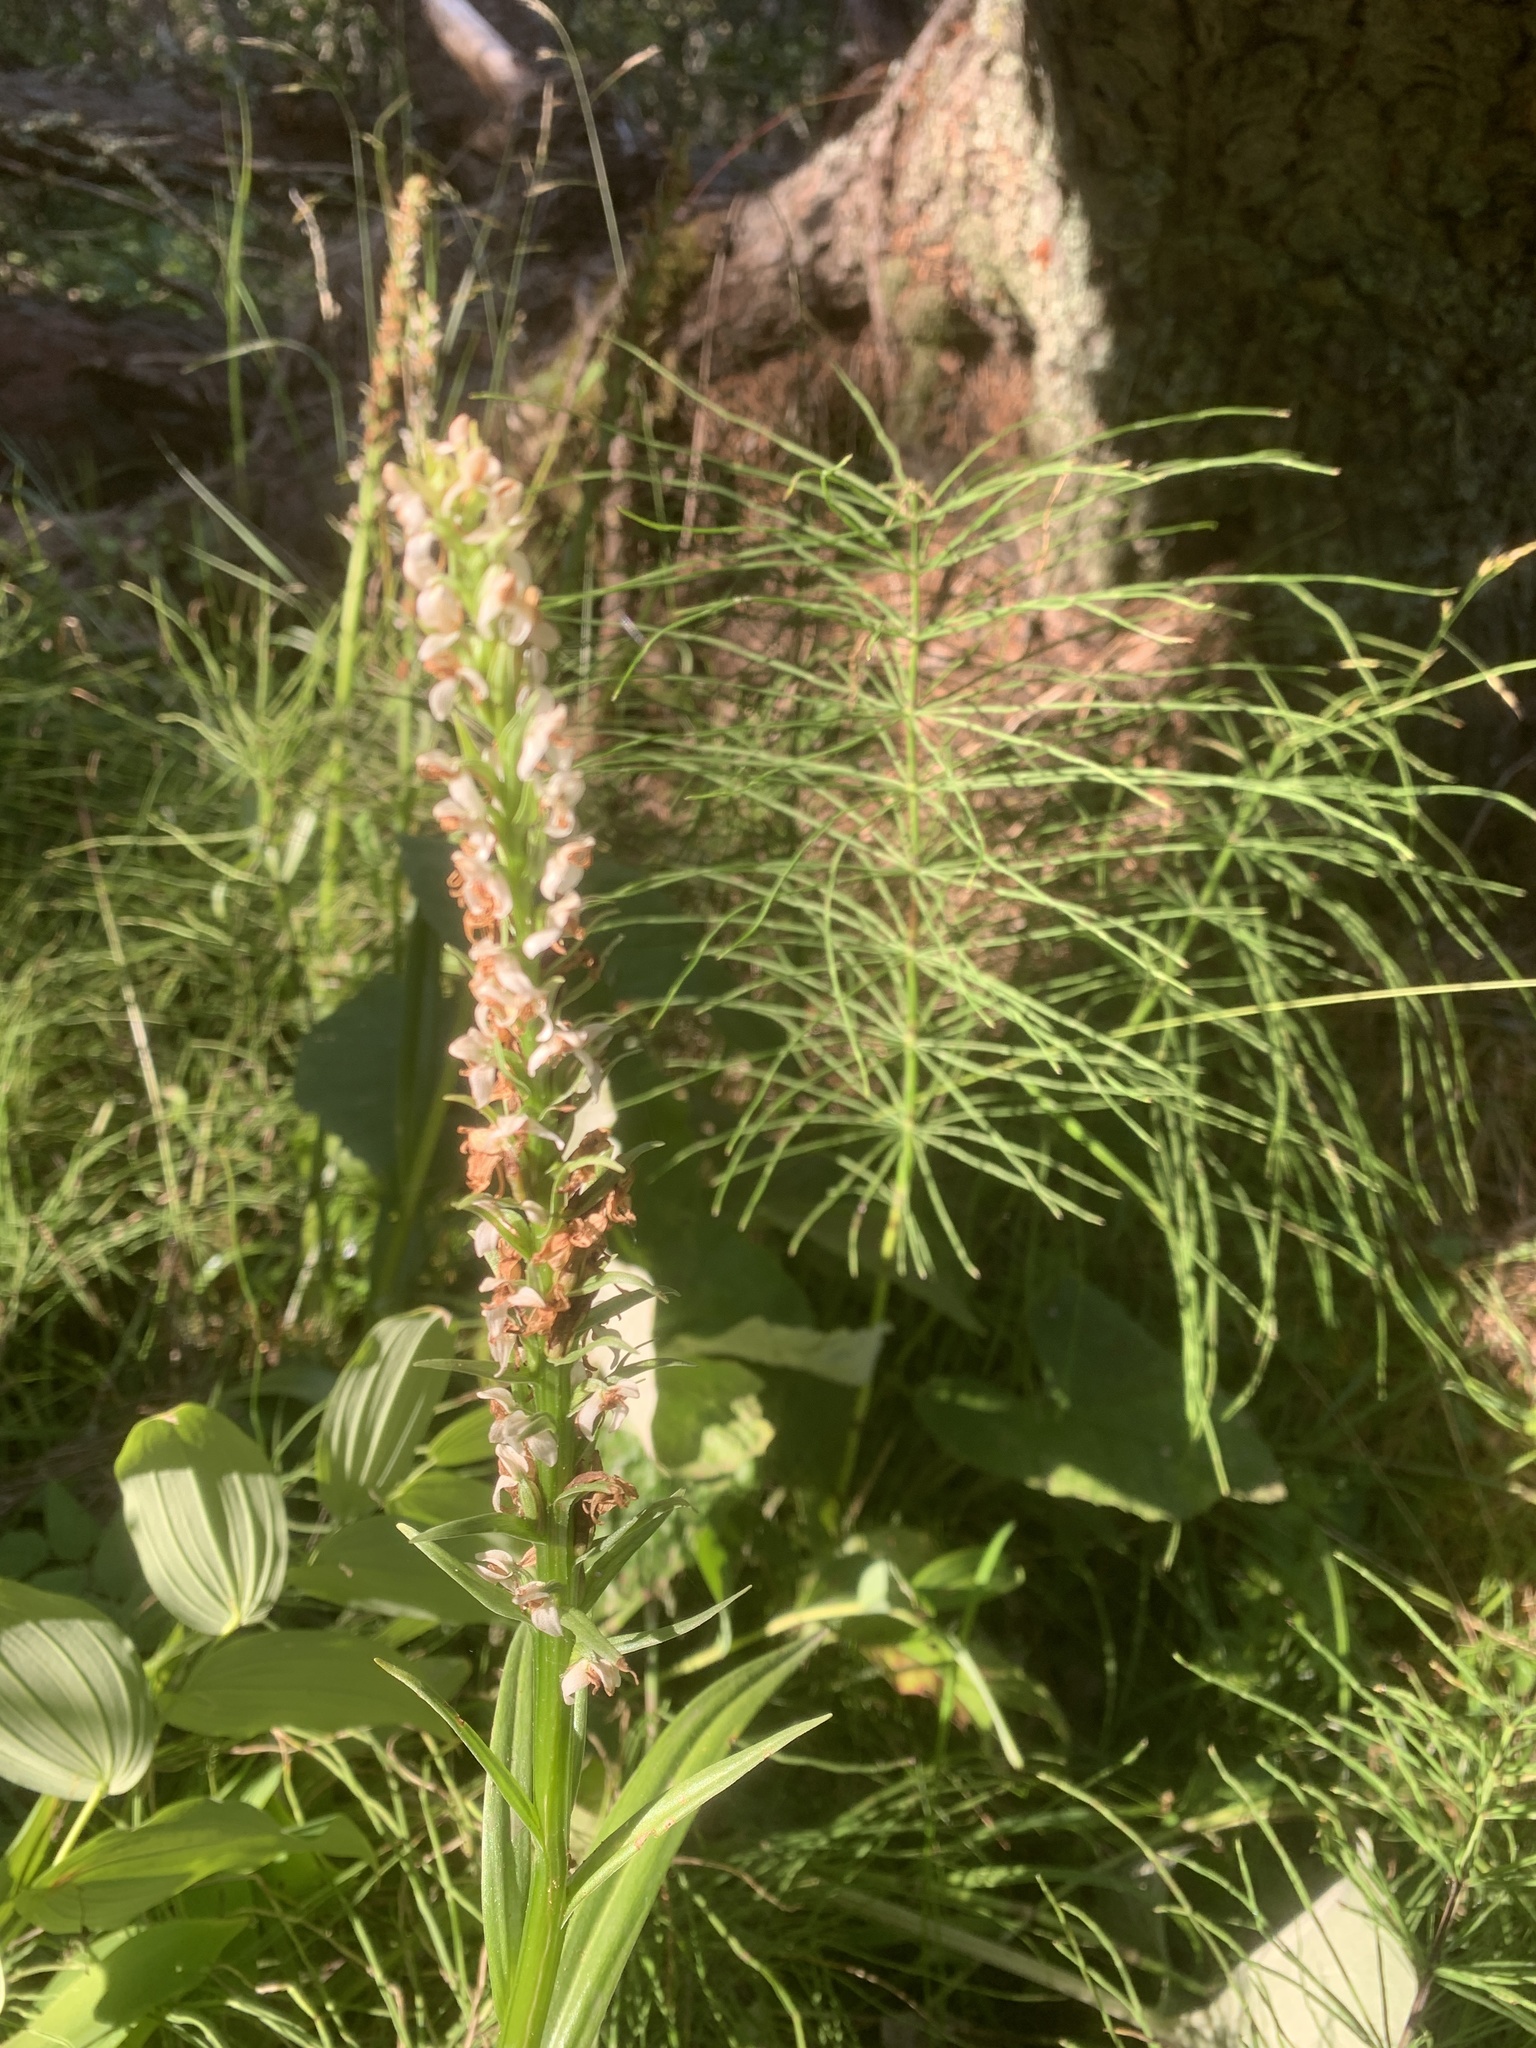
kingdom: Plantae
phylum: Tracheophyta
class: Liliopsida
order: Asparagales
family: Orchidaceae
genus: Platanthera
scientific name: Platanthera dilatata
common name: Bog candles
